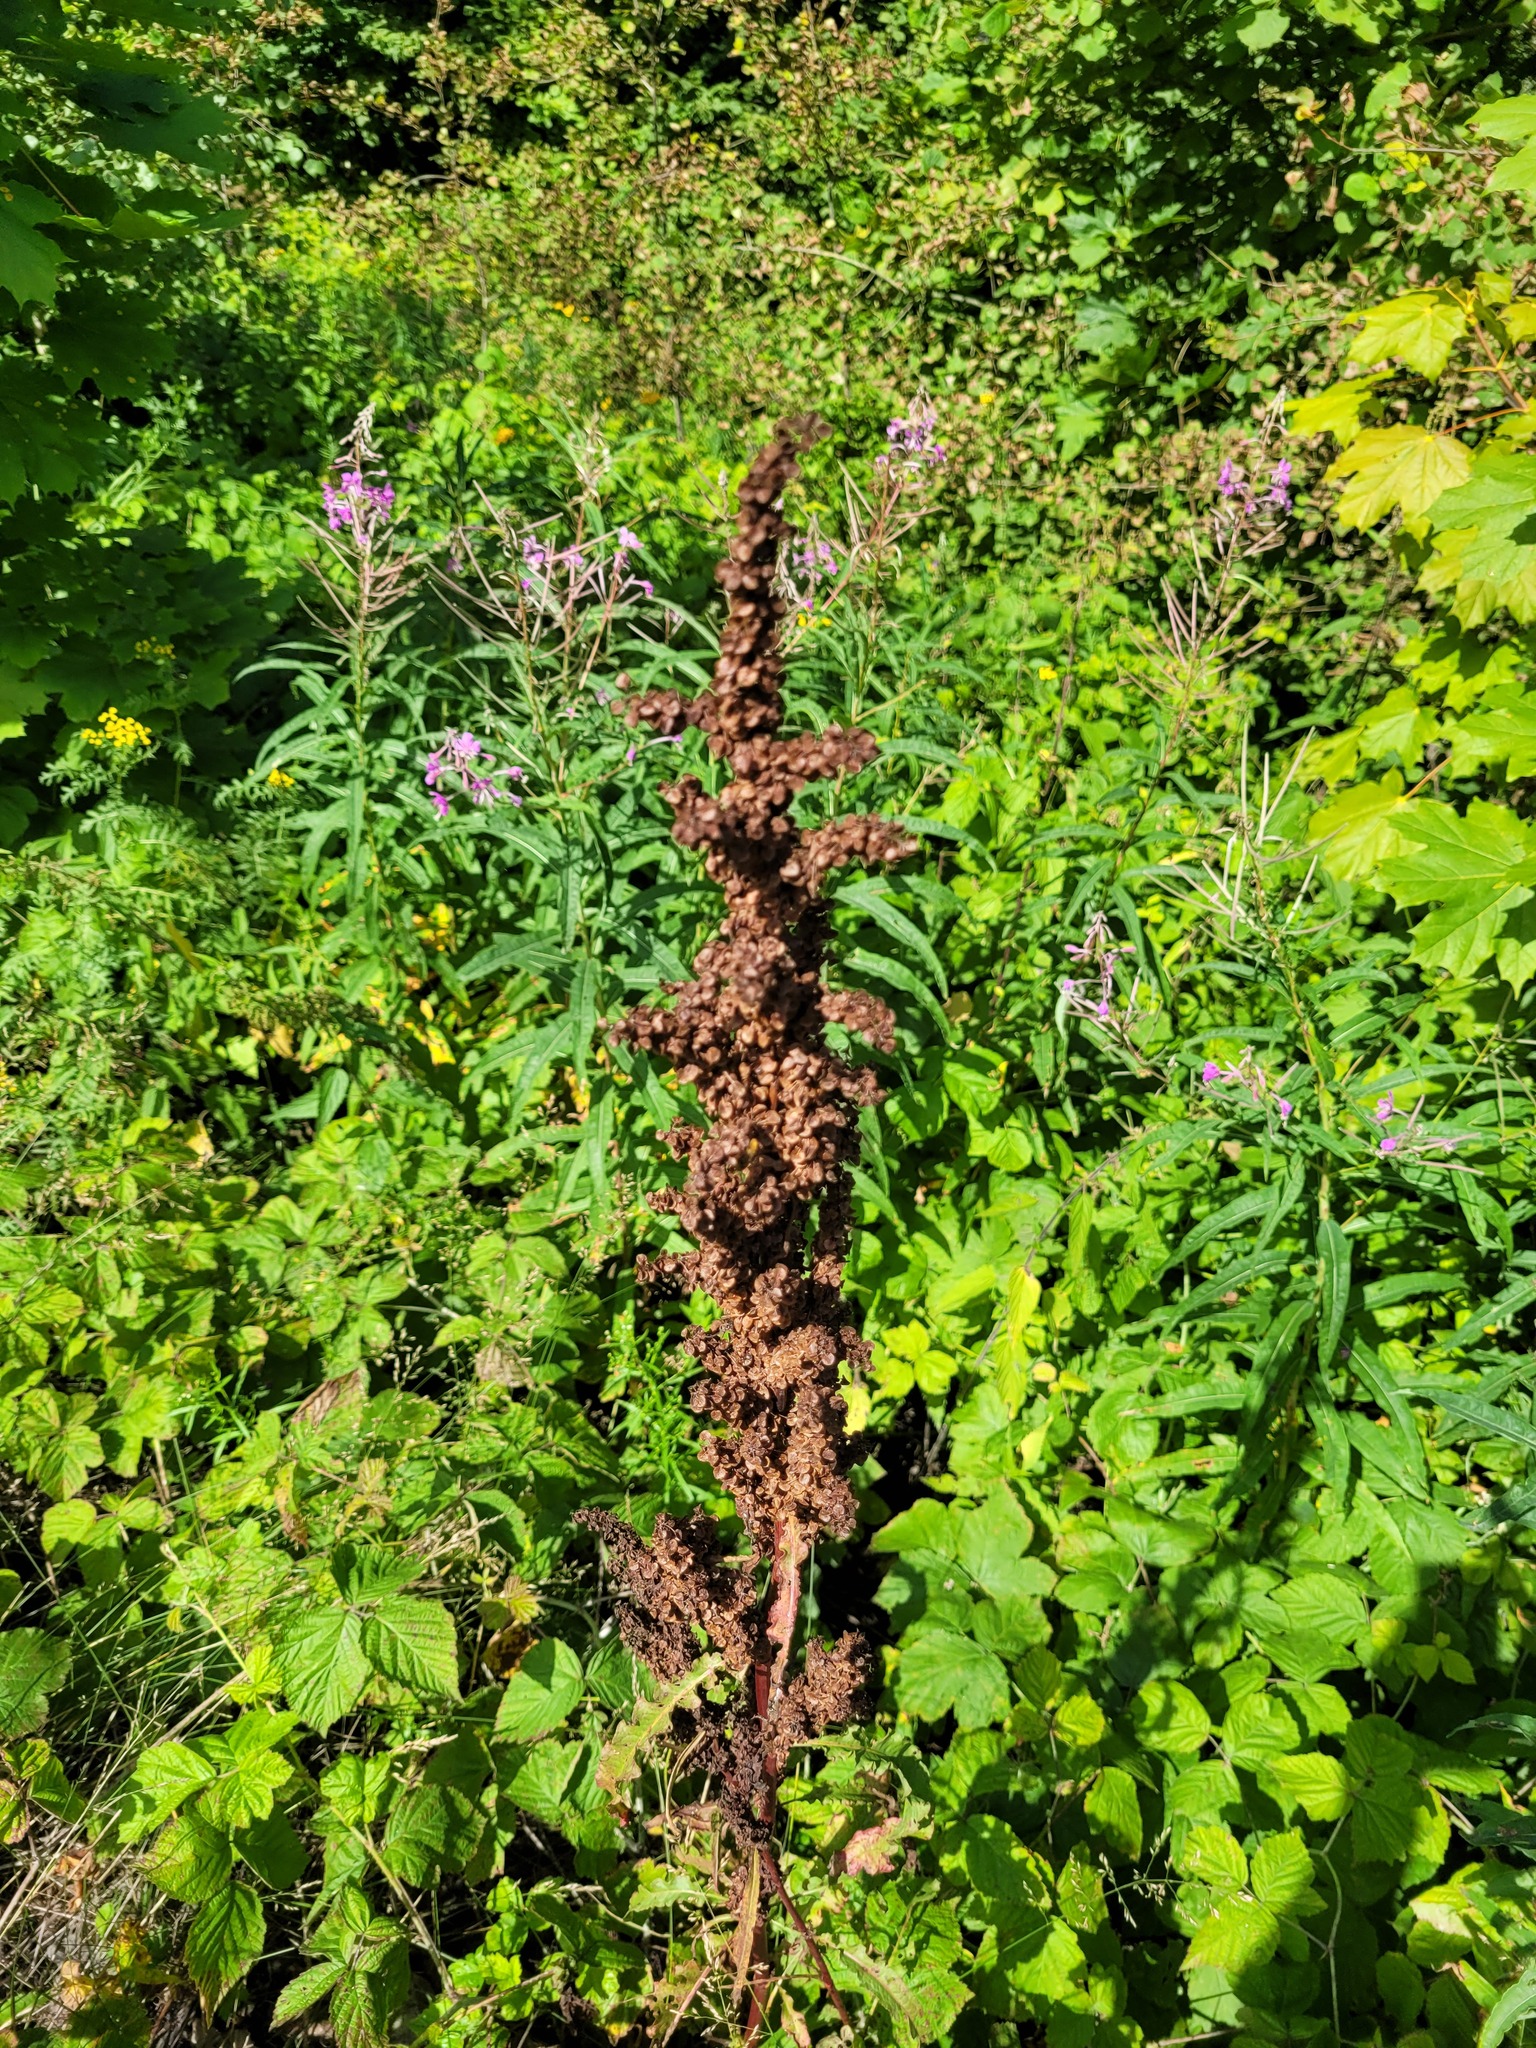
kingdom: Plantae
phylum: Tracheophyta
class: Magnoliopsida
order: Caryophyllales
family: Polygonaceae
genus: Rumex
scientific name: Rumex pseudonatronatus
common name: Field dock
